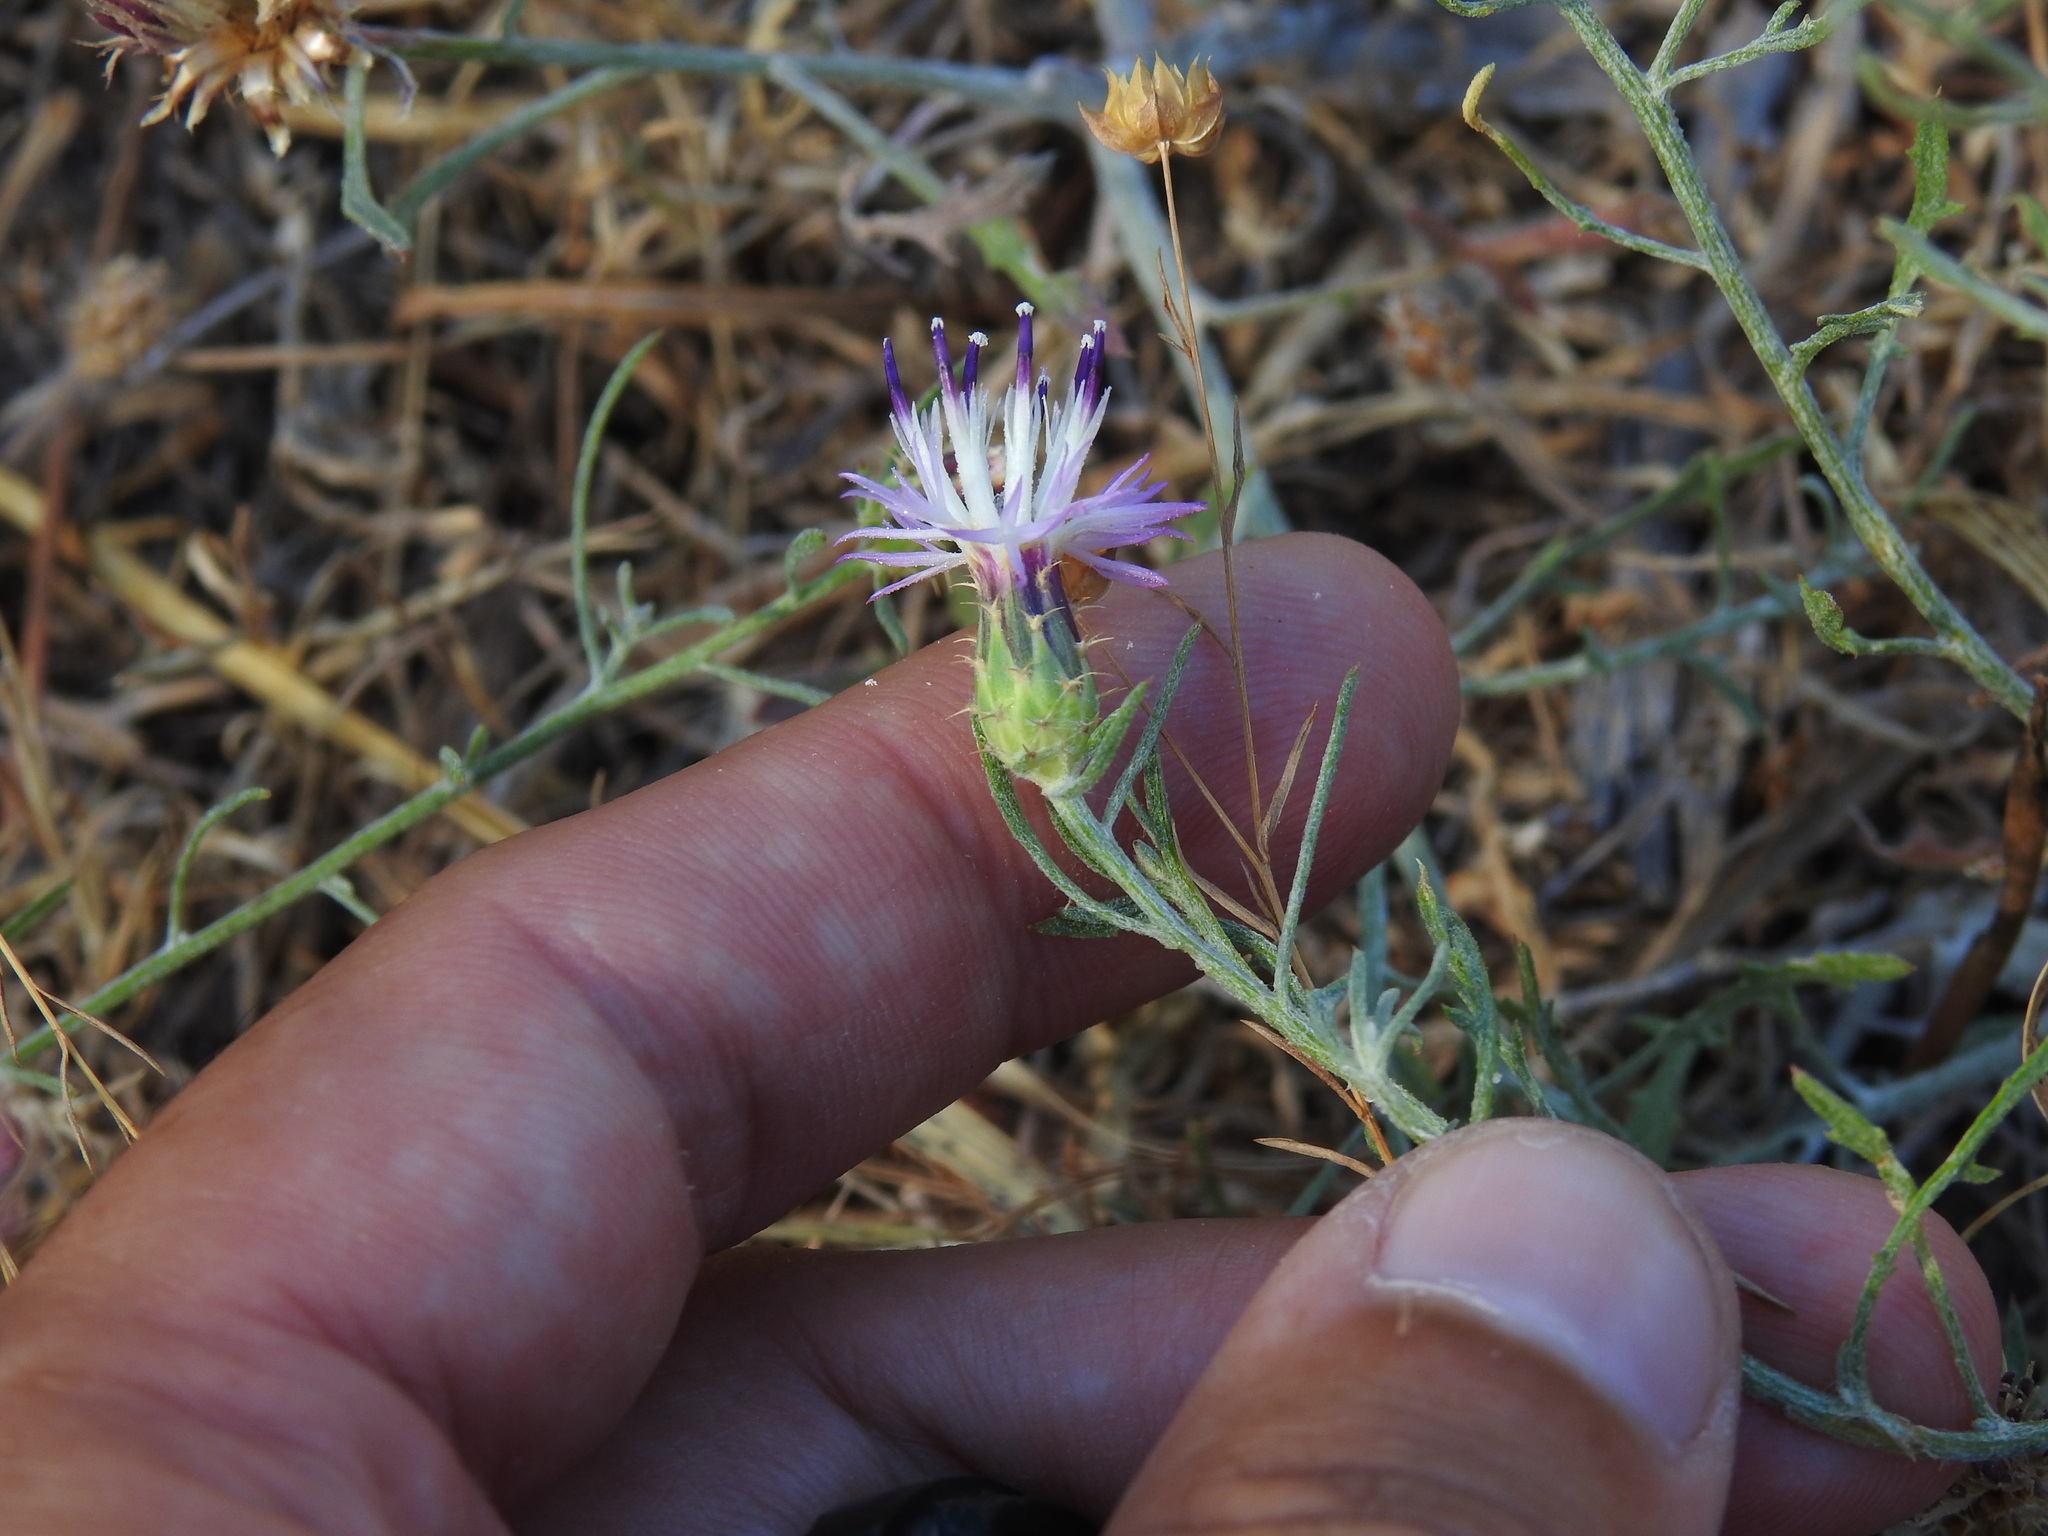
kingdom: Plantae
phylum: Tracheophyta
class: Magnoliopsida
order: Asterales
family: Asteraceae
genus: Centaurea
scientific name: Centaurea aspera
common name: Rough star-thistle
